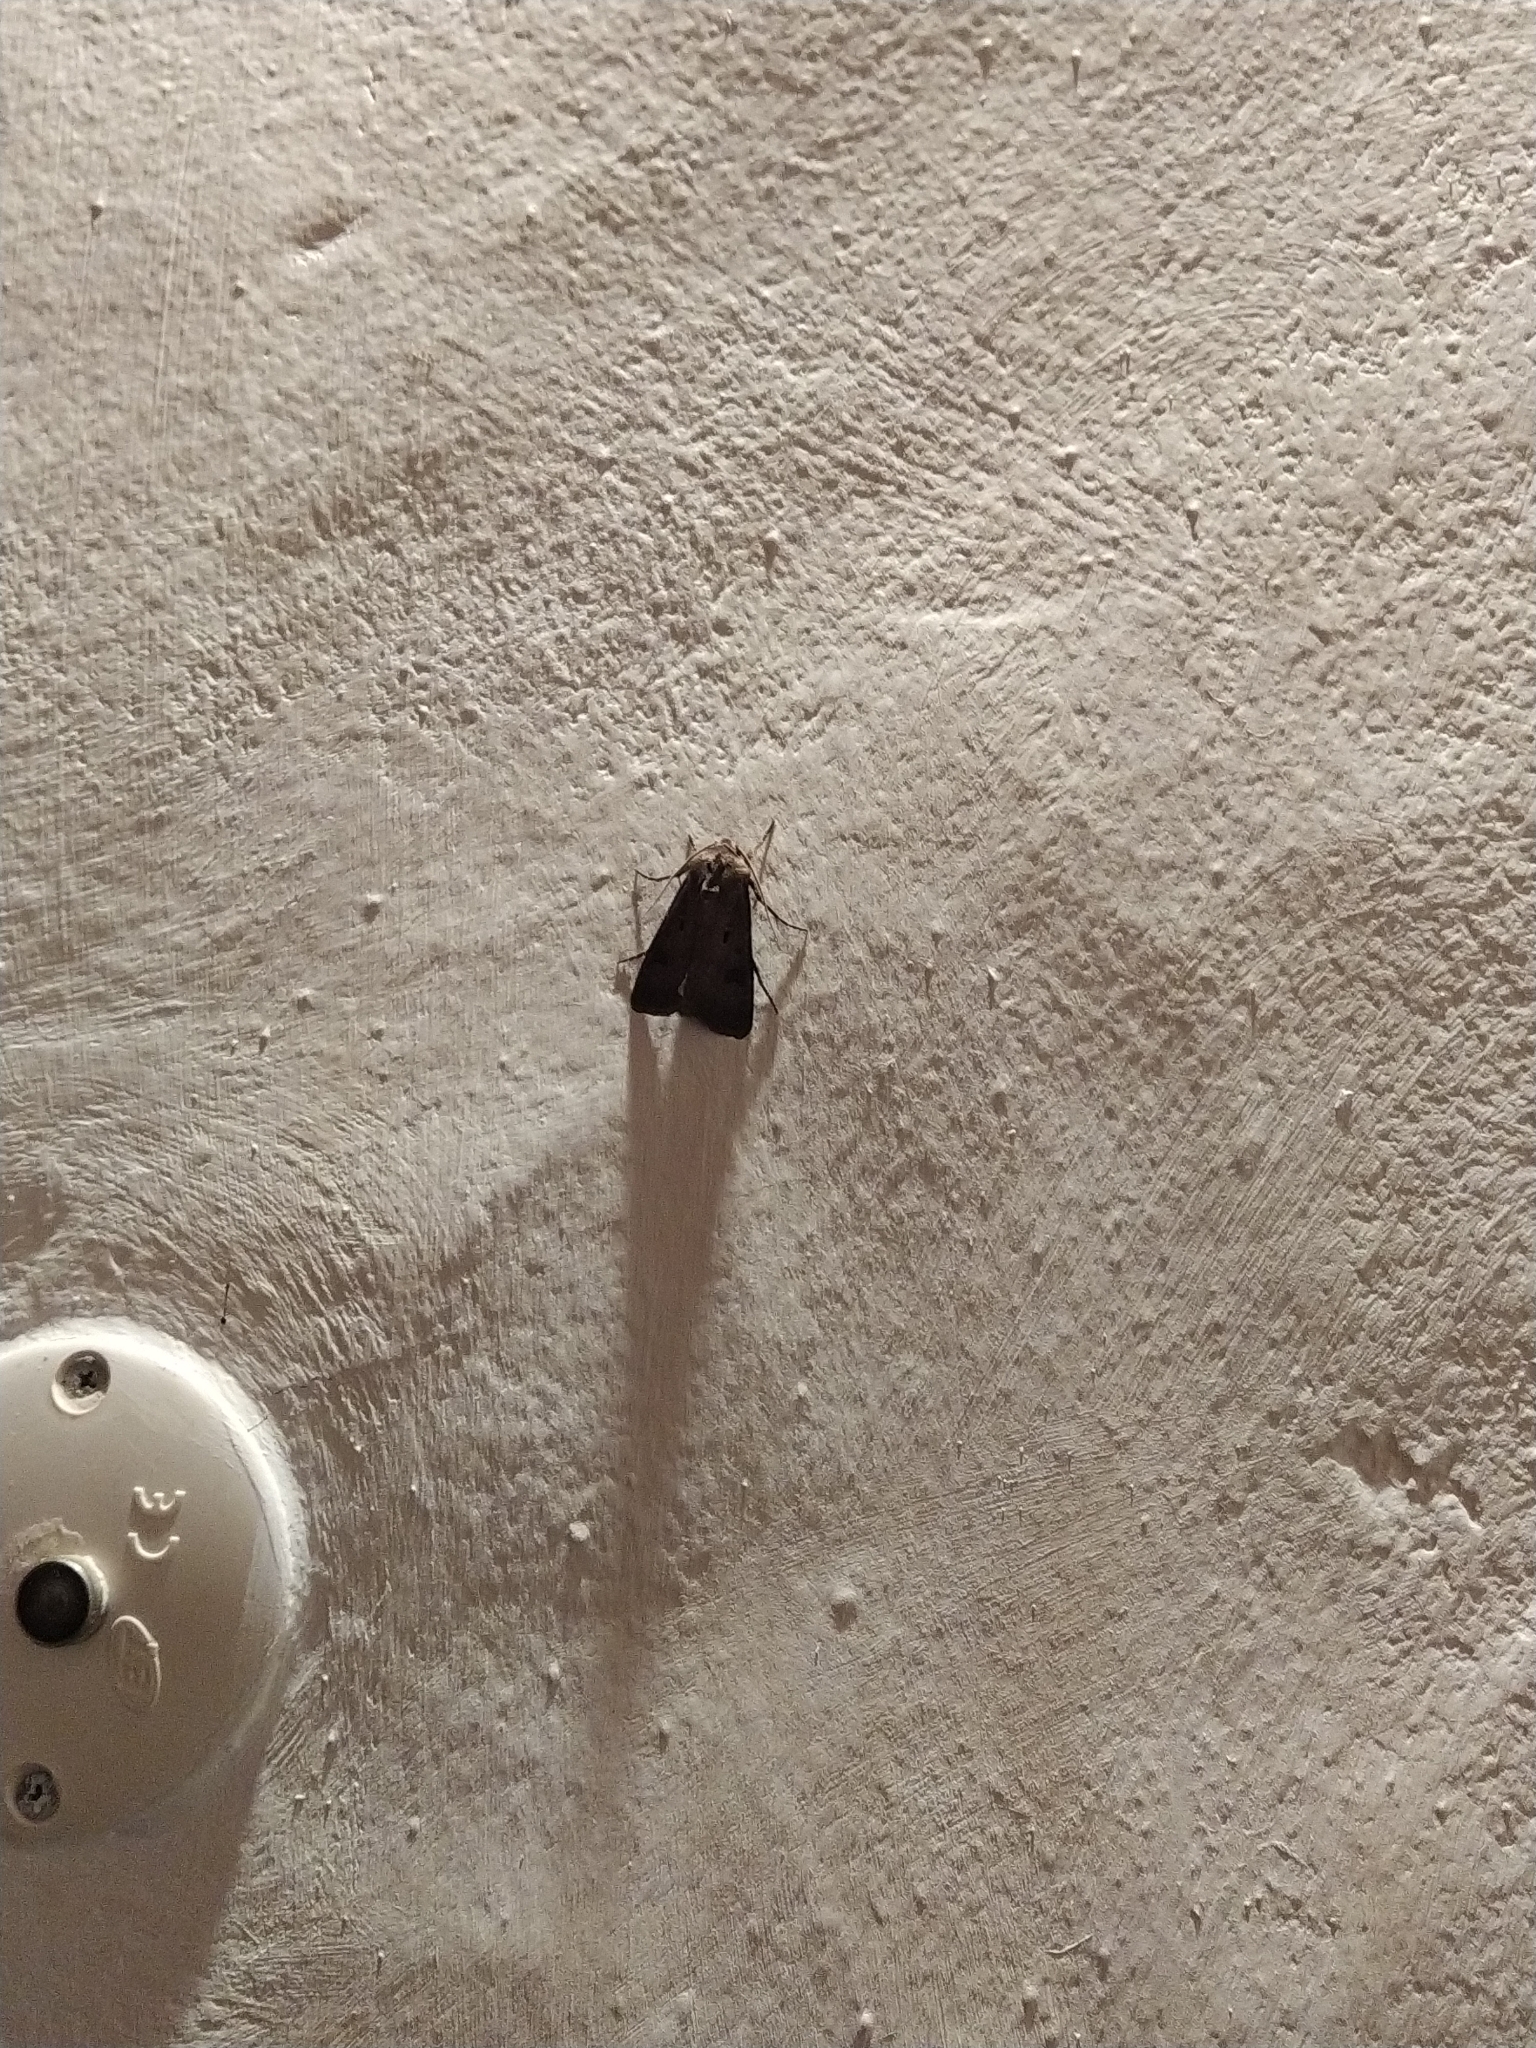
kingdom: Animalia
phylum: Arthropoda
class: Insecta
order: Lepidoptera
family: Noctuidae
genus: Agrotis
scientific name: Agrotis exclamationis
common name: Heart and dart
